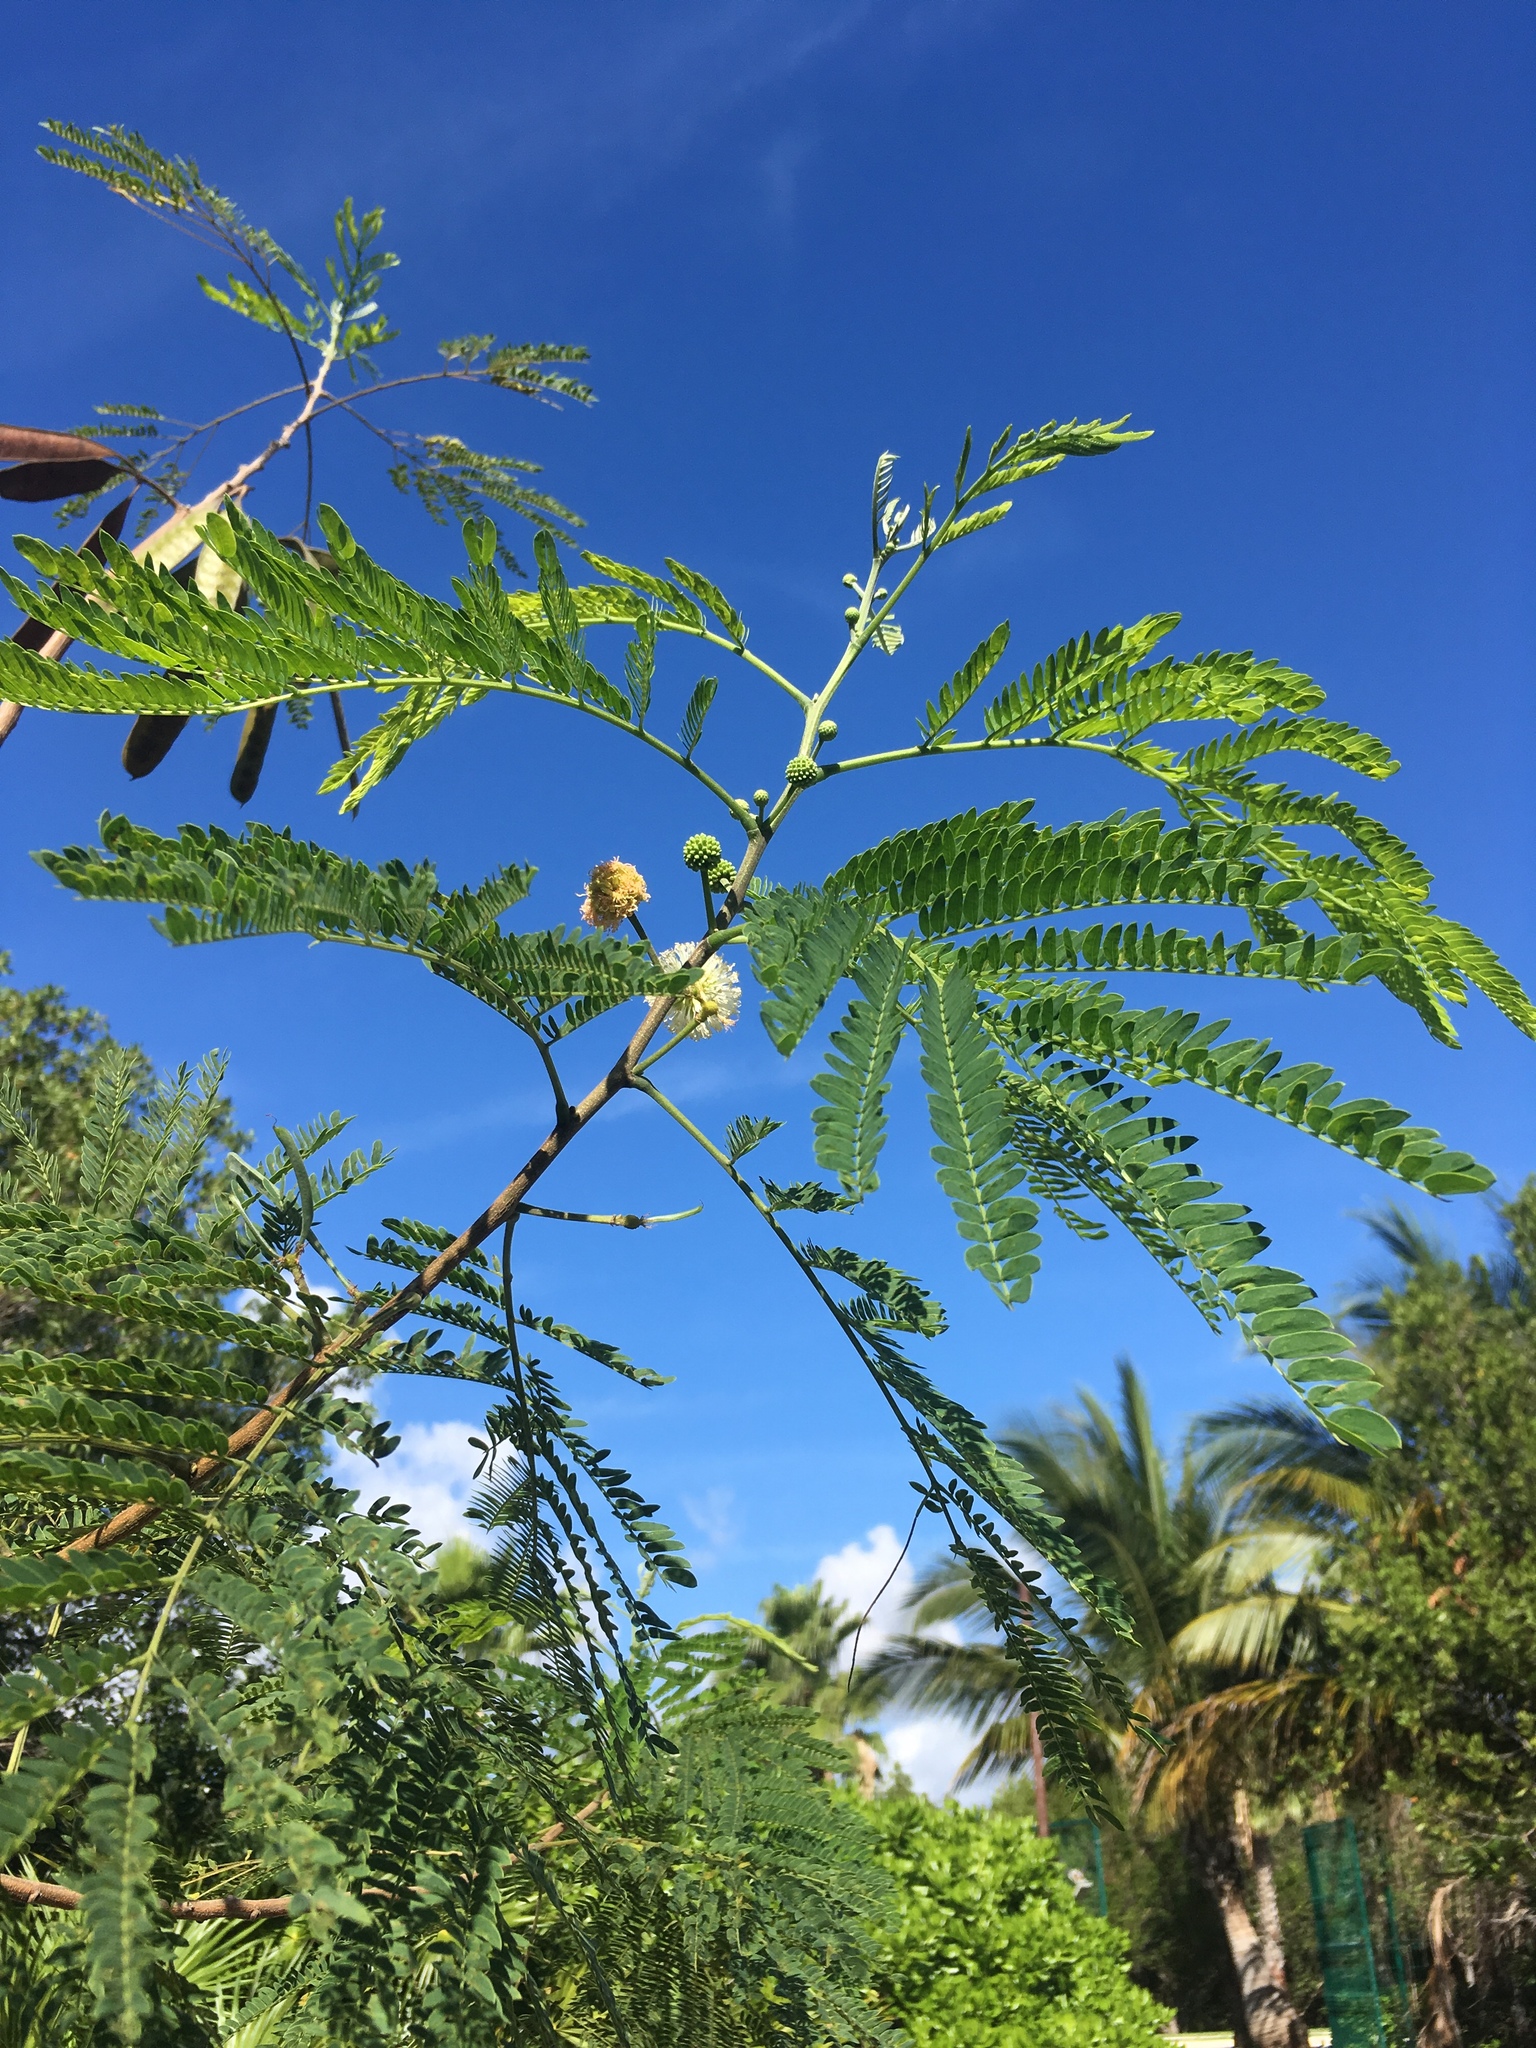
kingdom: Plantae
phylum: Tracheophyta
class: Magnoliopsida
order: Fabales
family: Fabaceae
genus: Leucaena
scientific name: Leucaena leucocephala
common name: White leadtree
